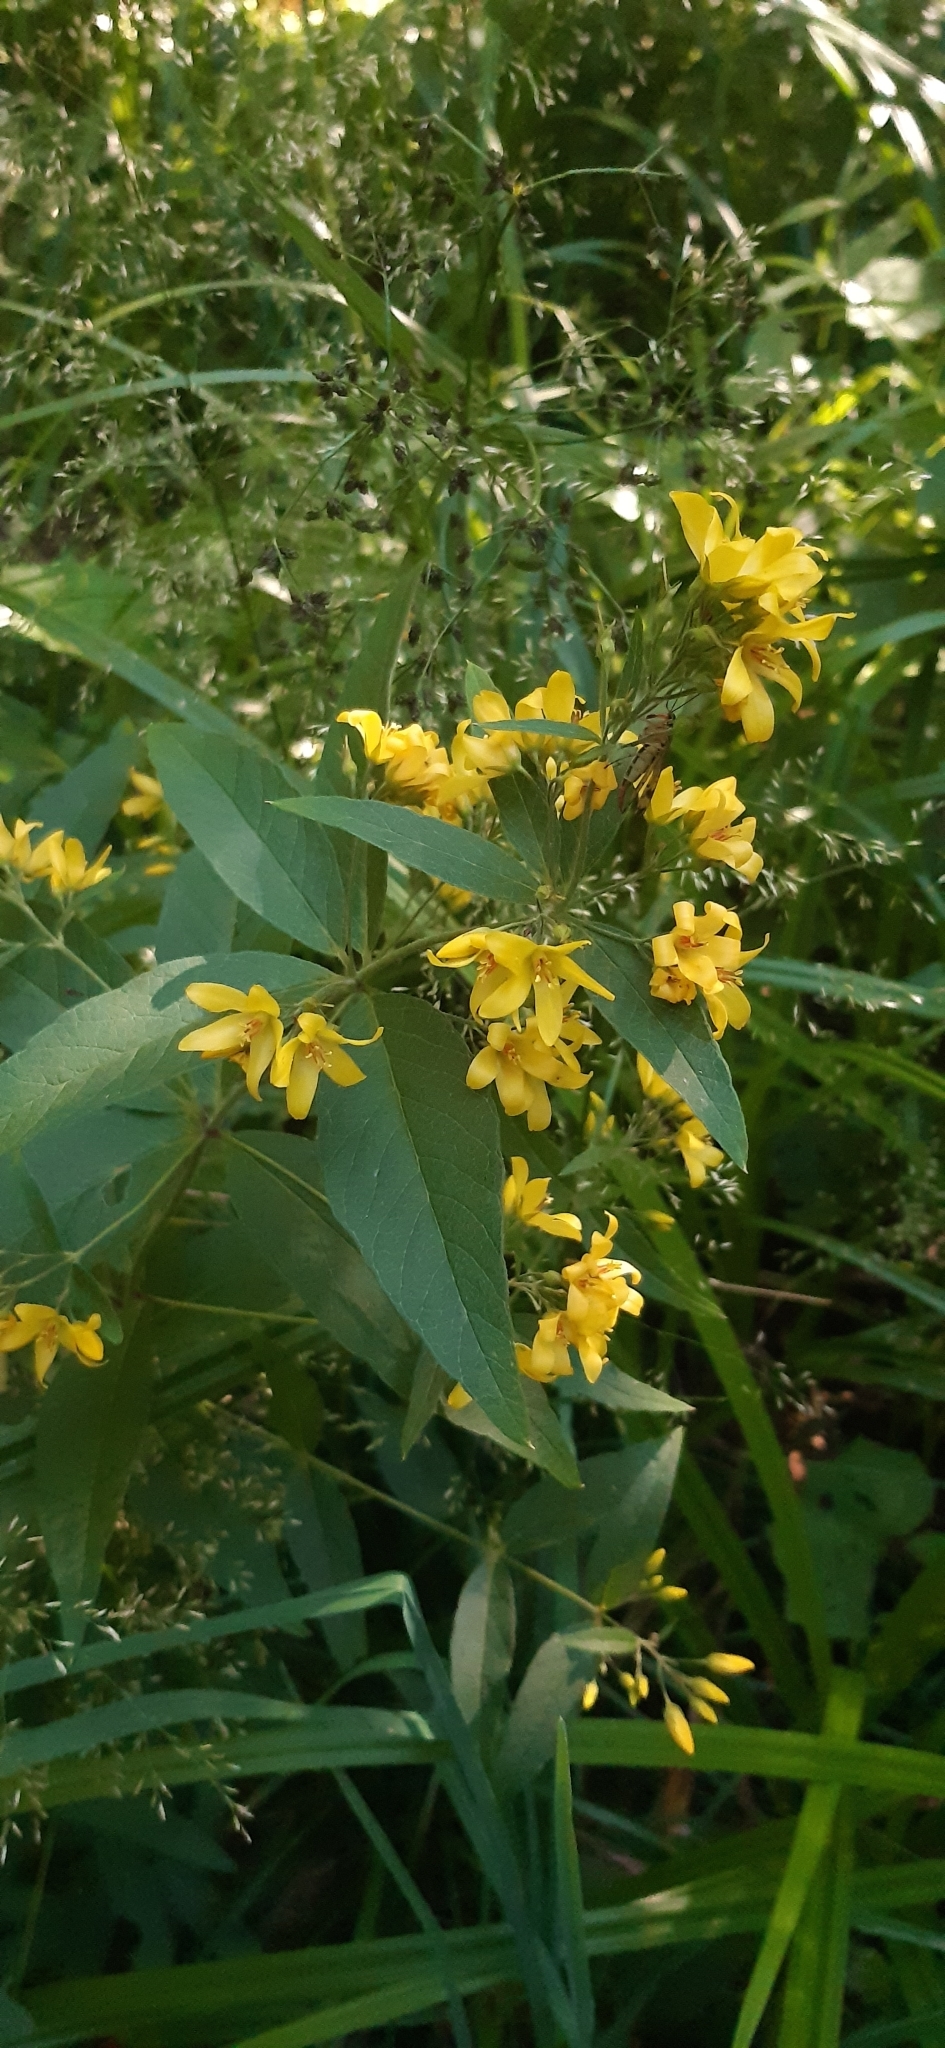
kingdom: Plantae
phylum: Tracheophyta
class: Magnoliopsida
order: Ericales
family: Primulaceae
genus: Lysimachia
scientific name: Lysimachia vulgaris
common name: Yellow loosestrife
